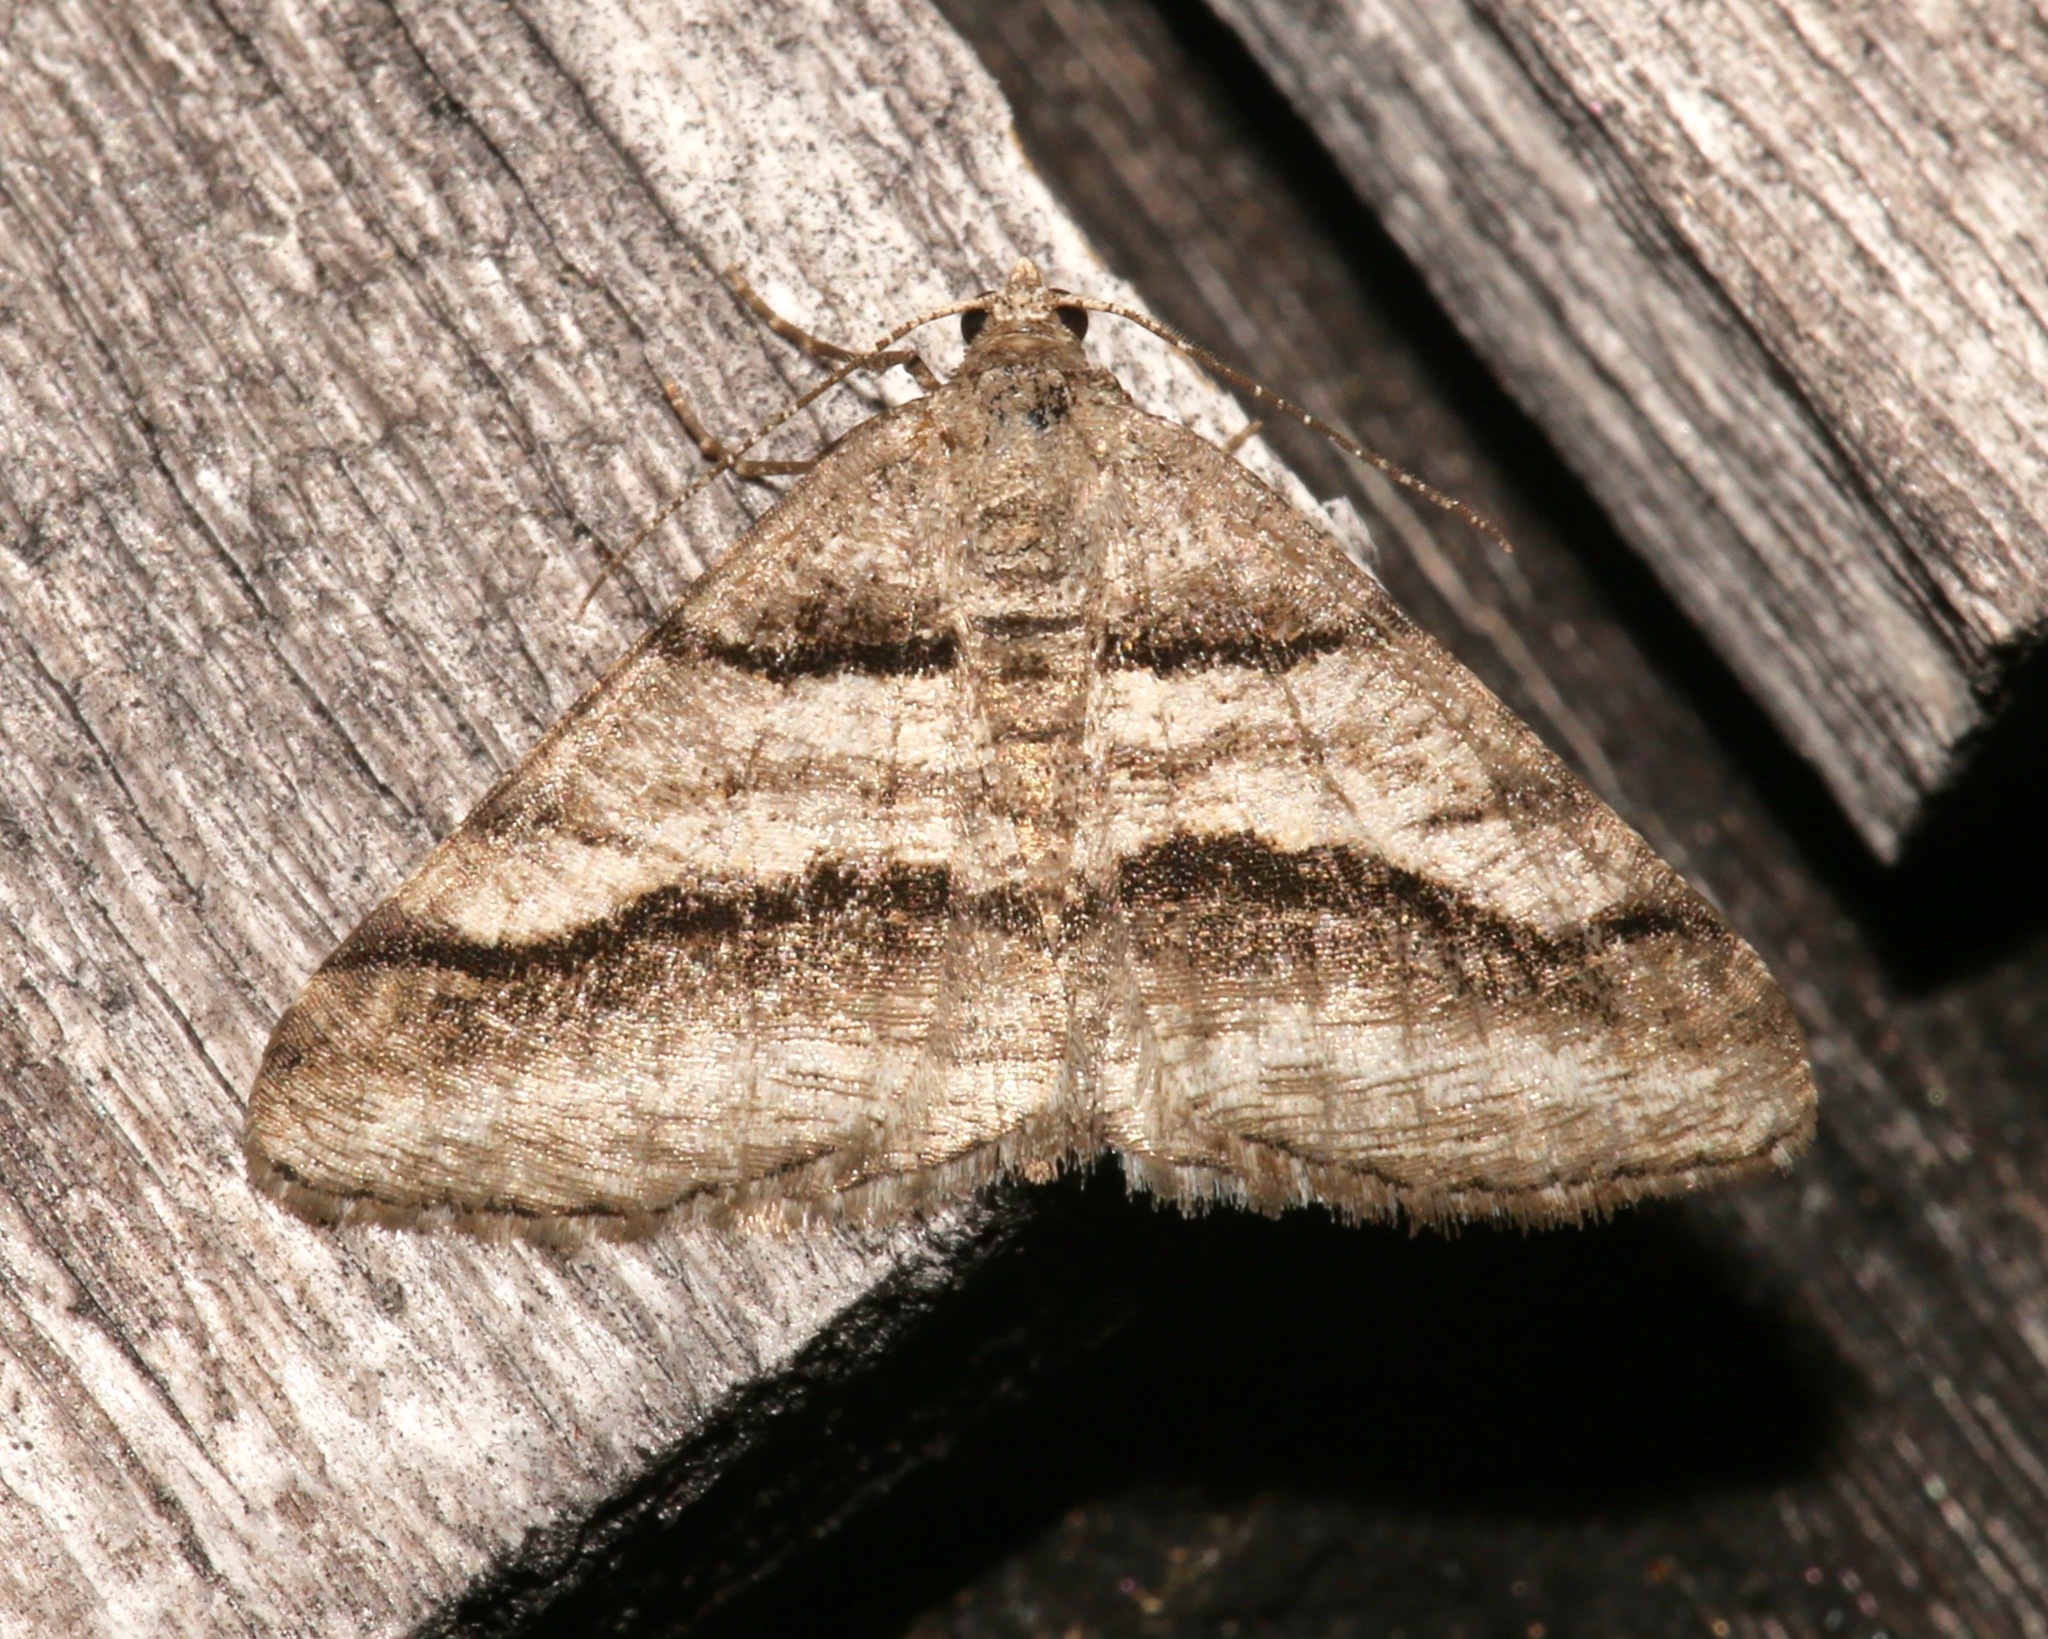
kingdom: Animalia
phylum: Arthropoda
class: Insecta
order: Lepidoptera
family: Geometridae
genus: Digrammia
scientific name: Digrammia continuata
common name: Curve-lined angle
